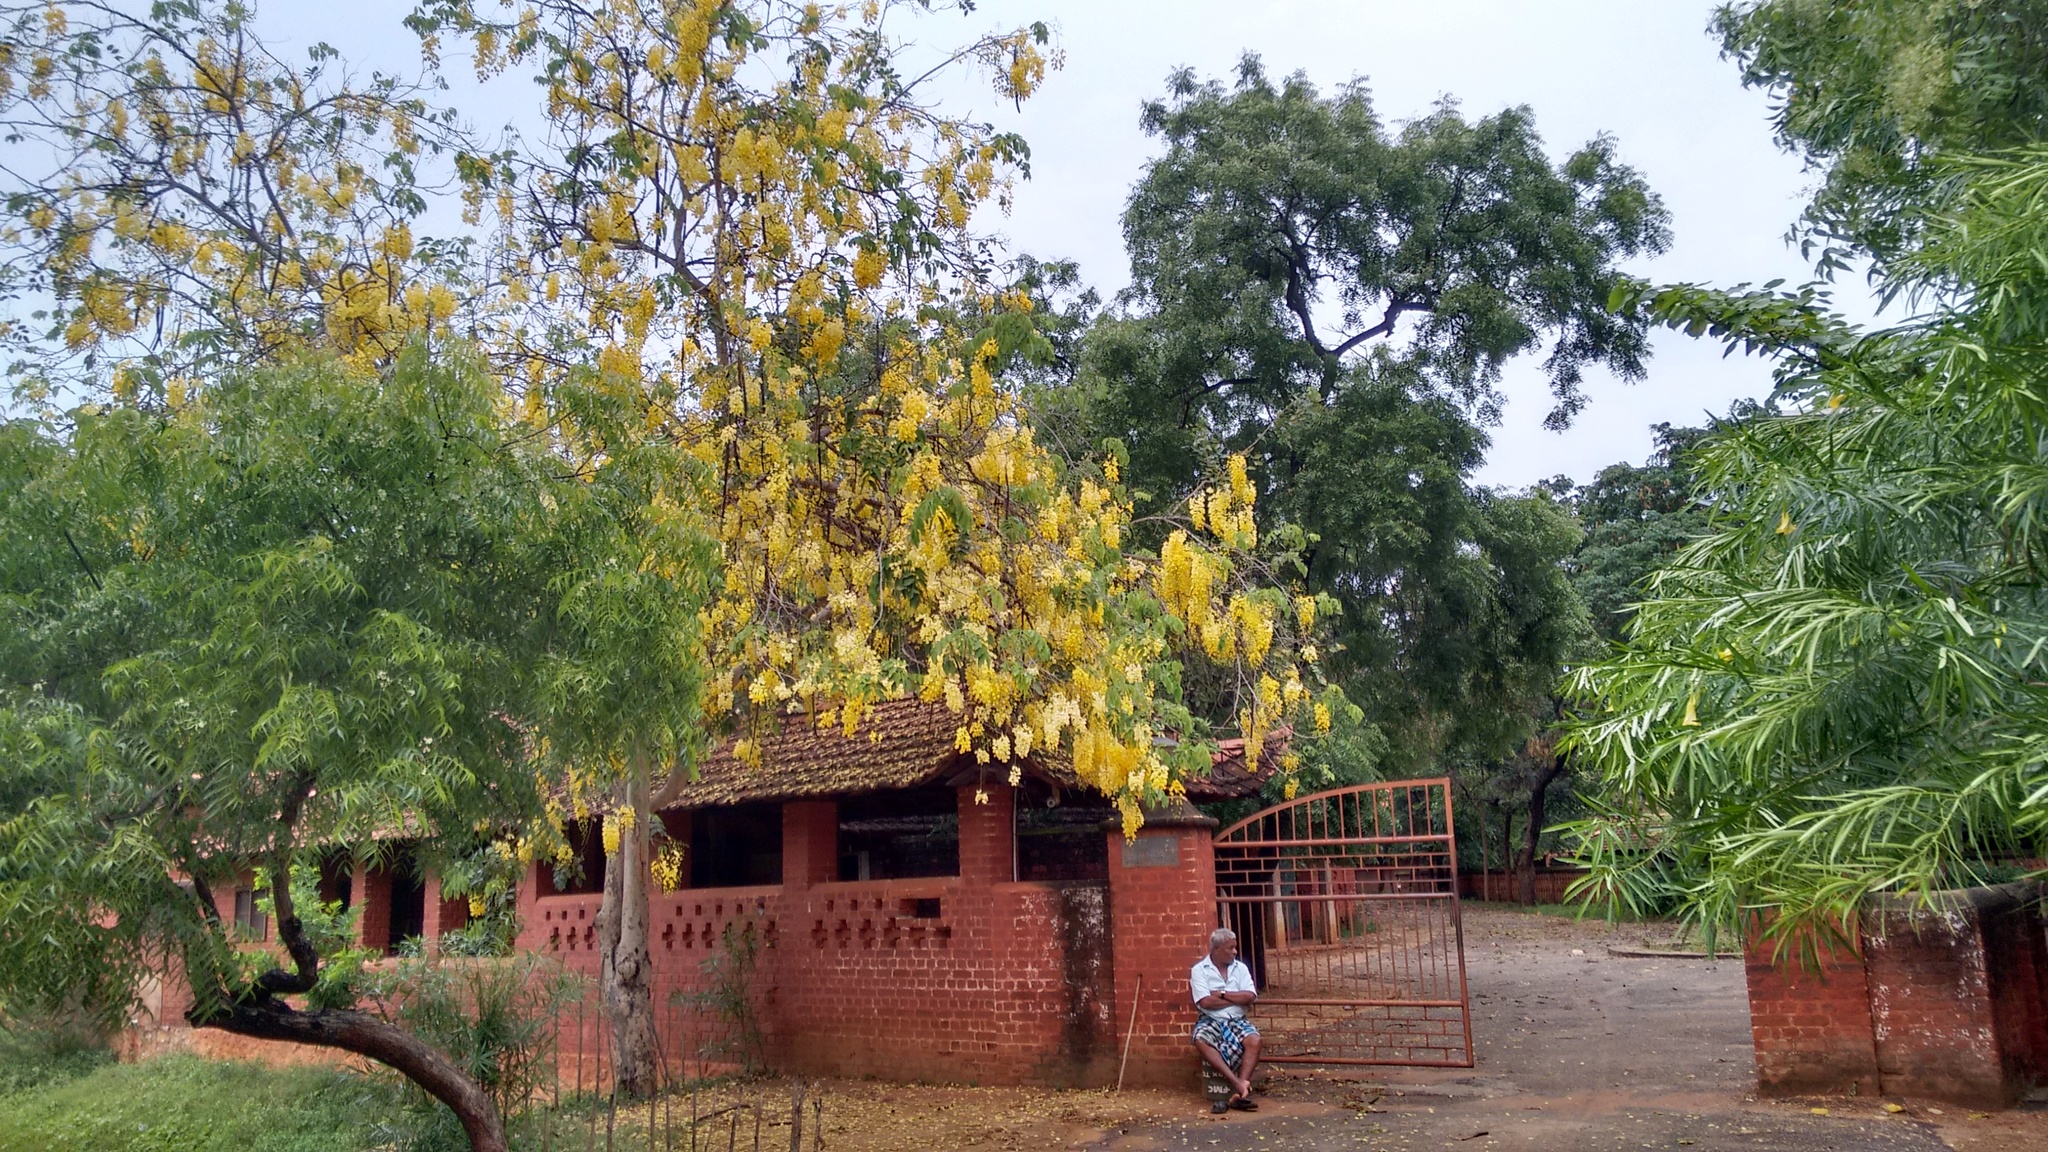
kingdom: Plantae
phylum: Tracheophyta
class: Magnoliopsida
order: Fabales
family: Fabaceae
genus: Cassia
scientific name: Cassia fistula
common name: Golden shower
